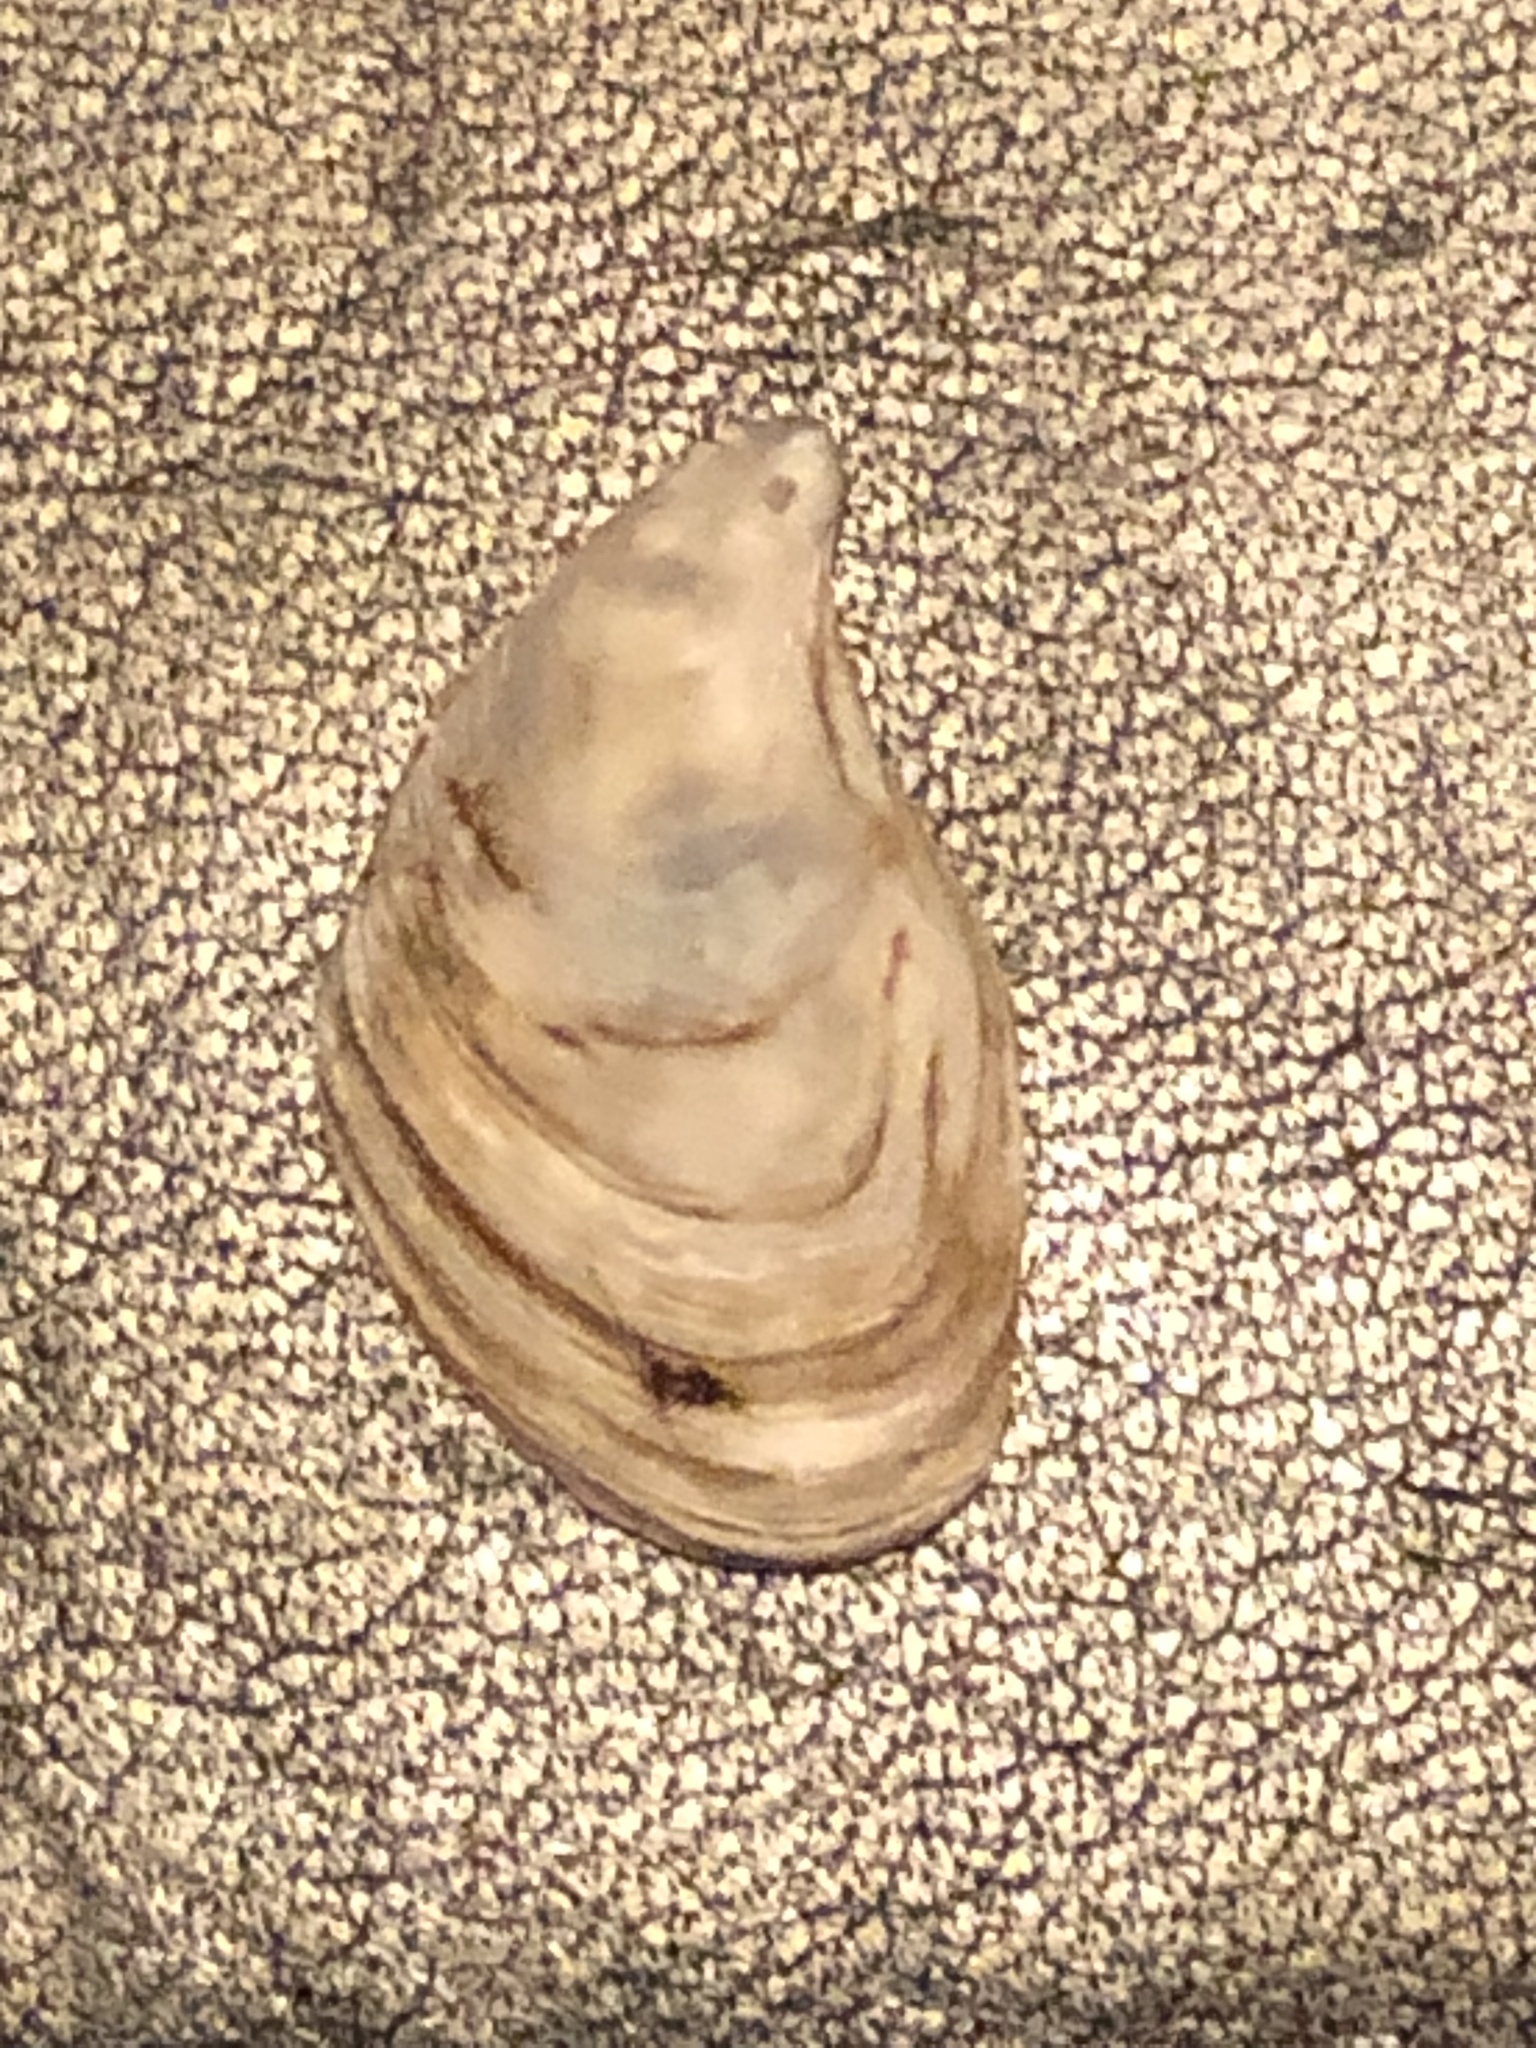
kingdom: Animalia
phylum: Mollusca
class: Bivalvia
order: Myida
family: Dreissenidae
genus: Dreissena
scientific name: Dreissena bugensis
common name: Quagga mussel
